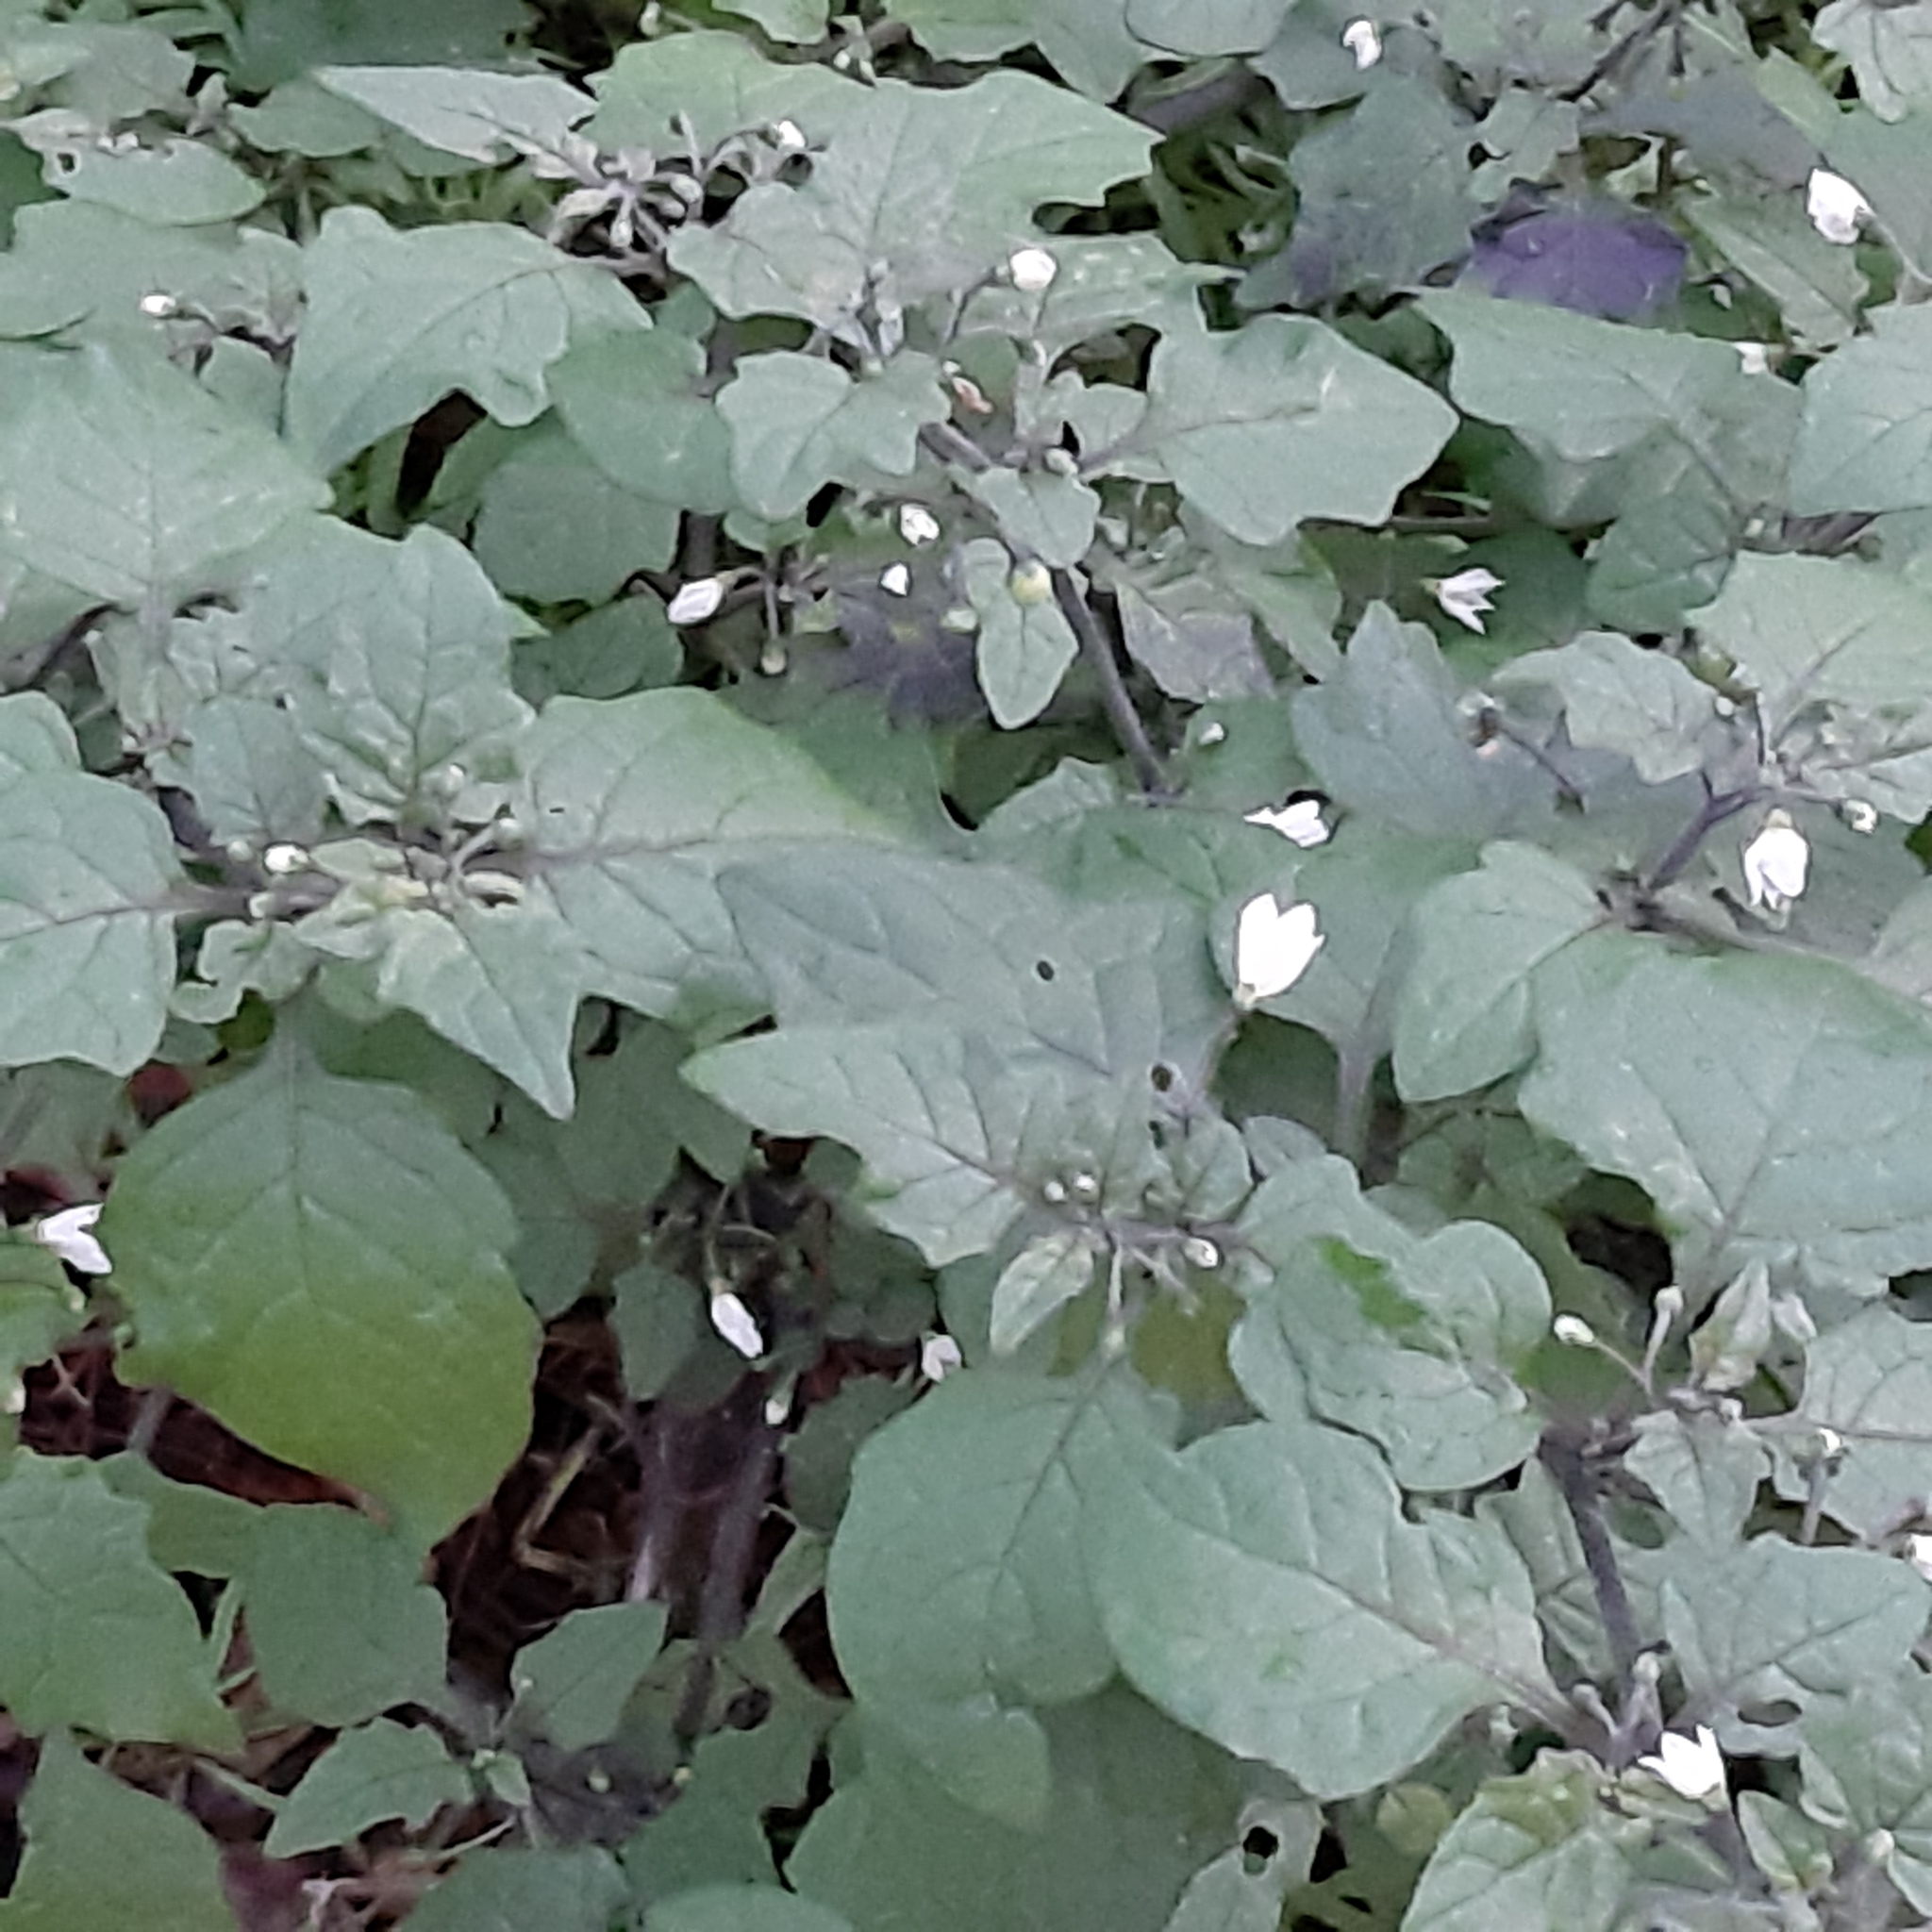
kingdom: Plantae
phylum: Tracheophyta
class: Magnoliopsida
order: Solanales
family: Solanaceae
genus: Solanum
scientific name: Solanum nigrum
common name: Black nightshade
